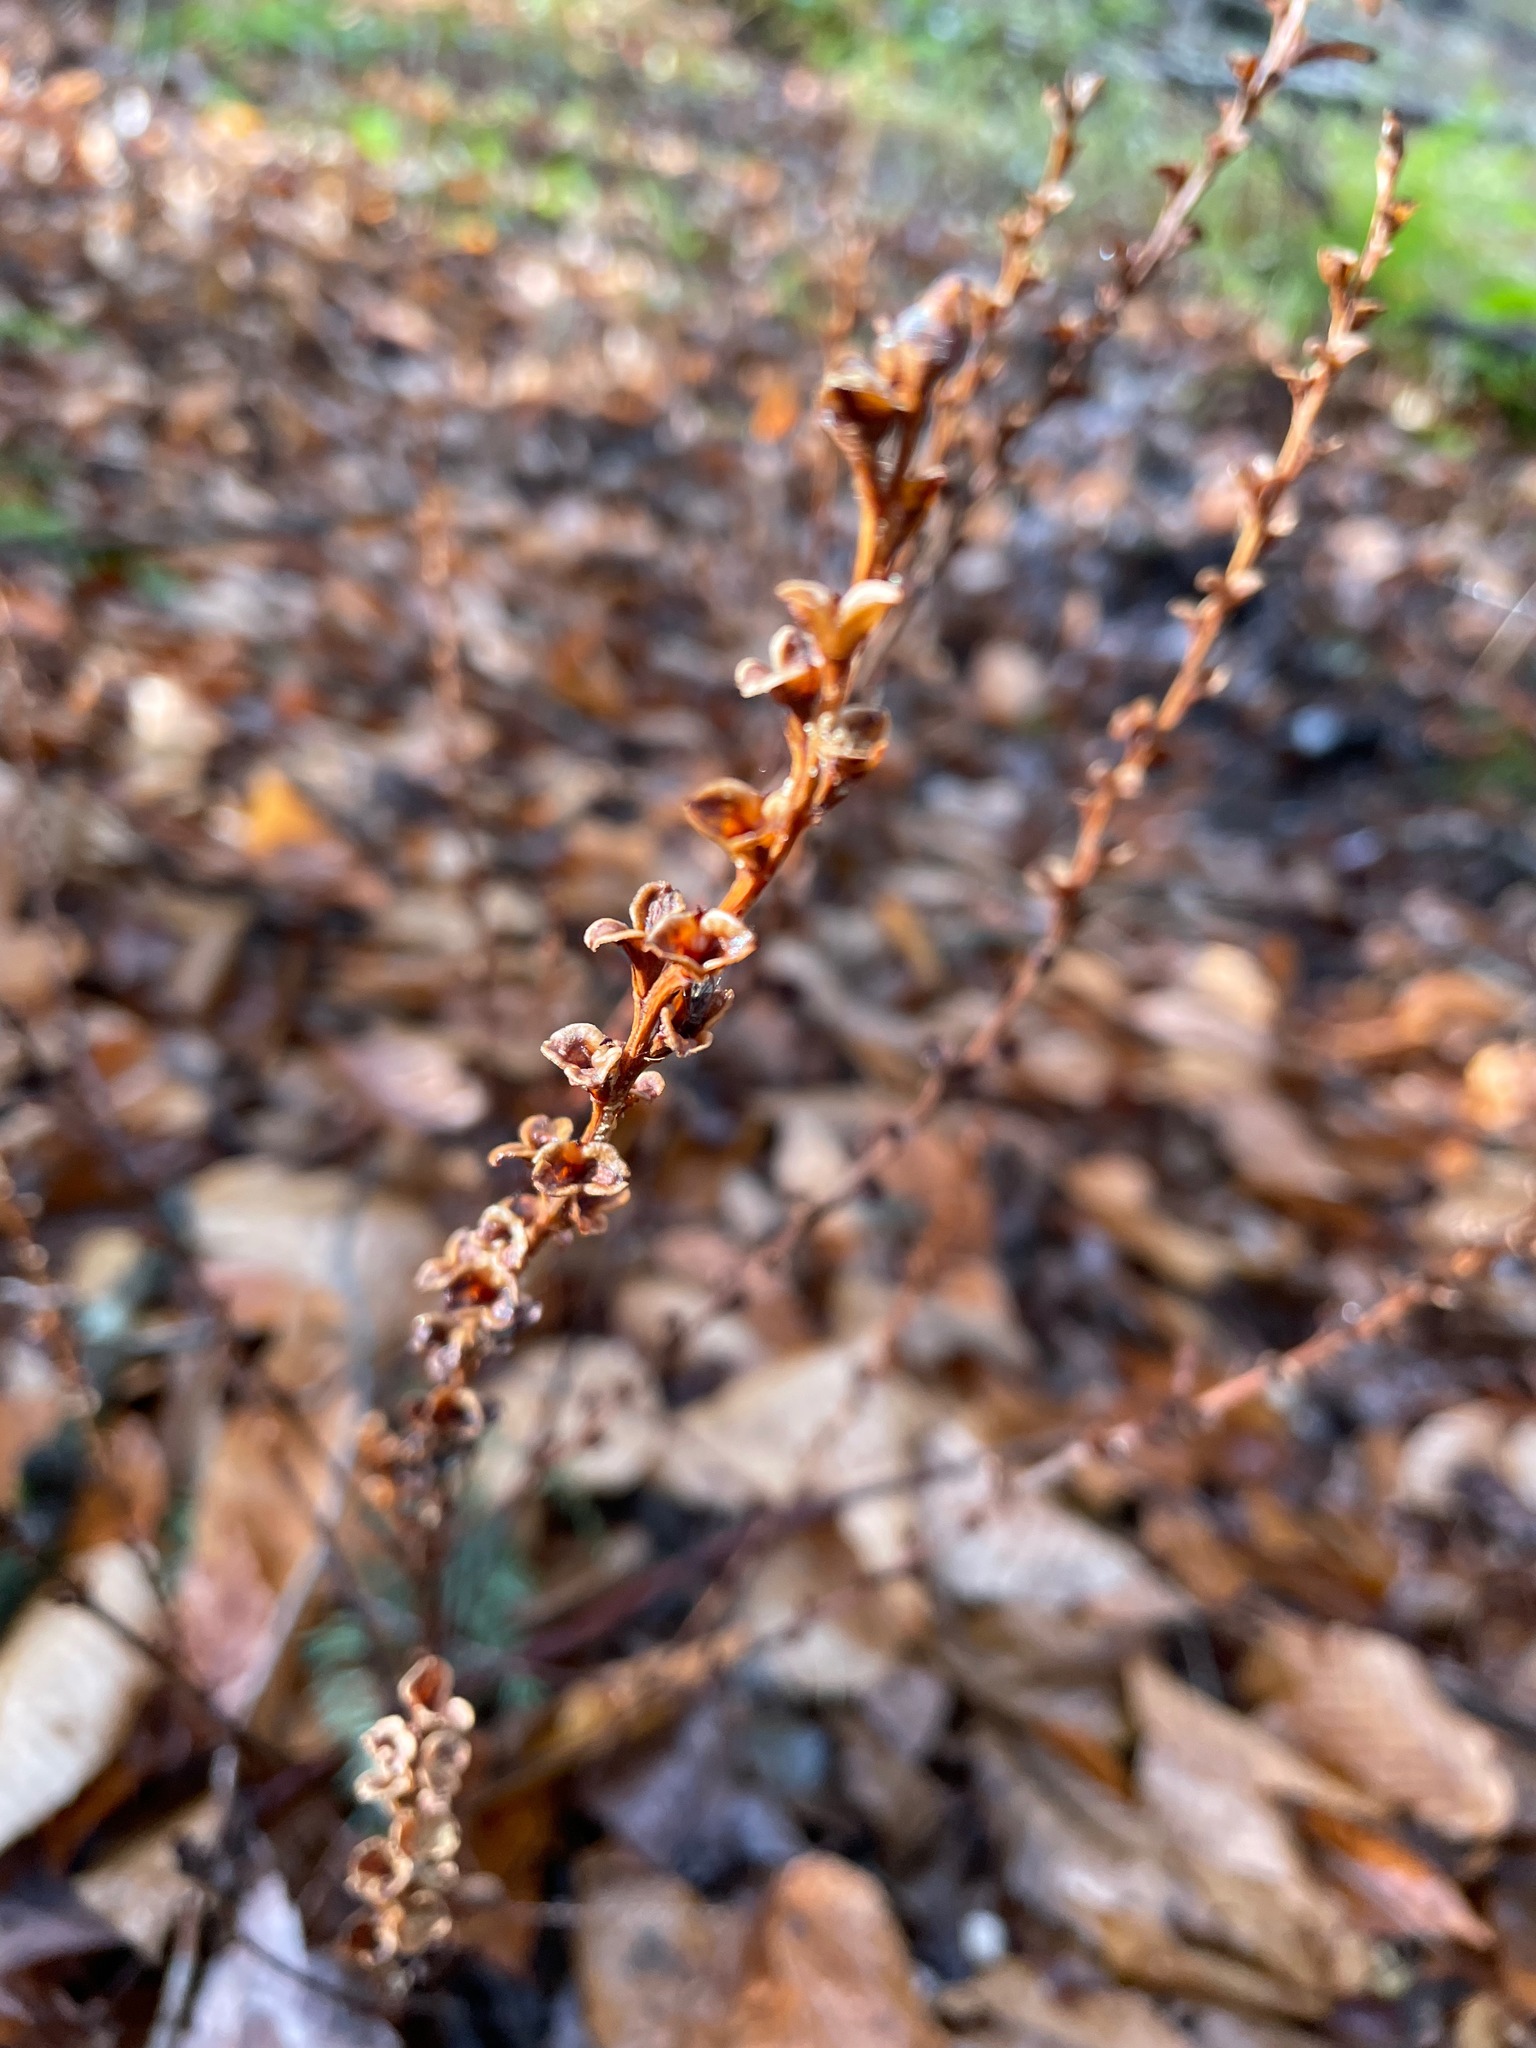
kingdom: Plantae
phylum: Tracheophyta
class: Magnoliopsida
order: Lamiales
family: Orobanchaceae
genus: Epifagus
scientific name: Epifagus virginiana
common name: Beechdrops
